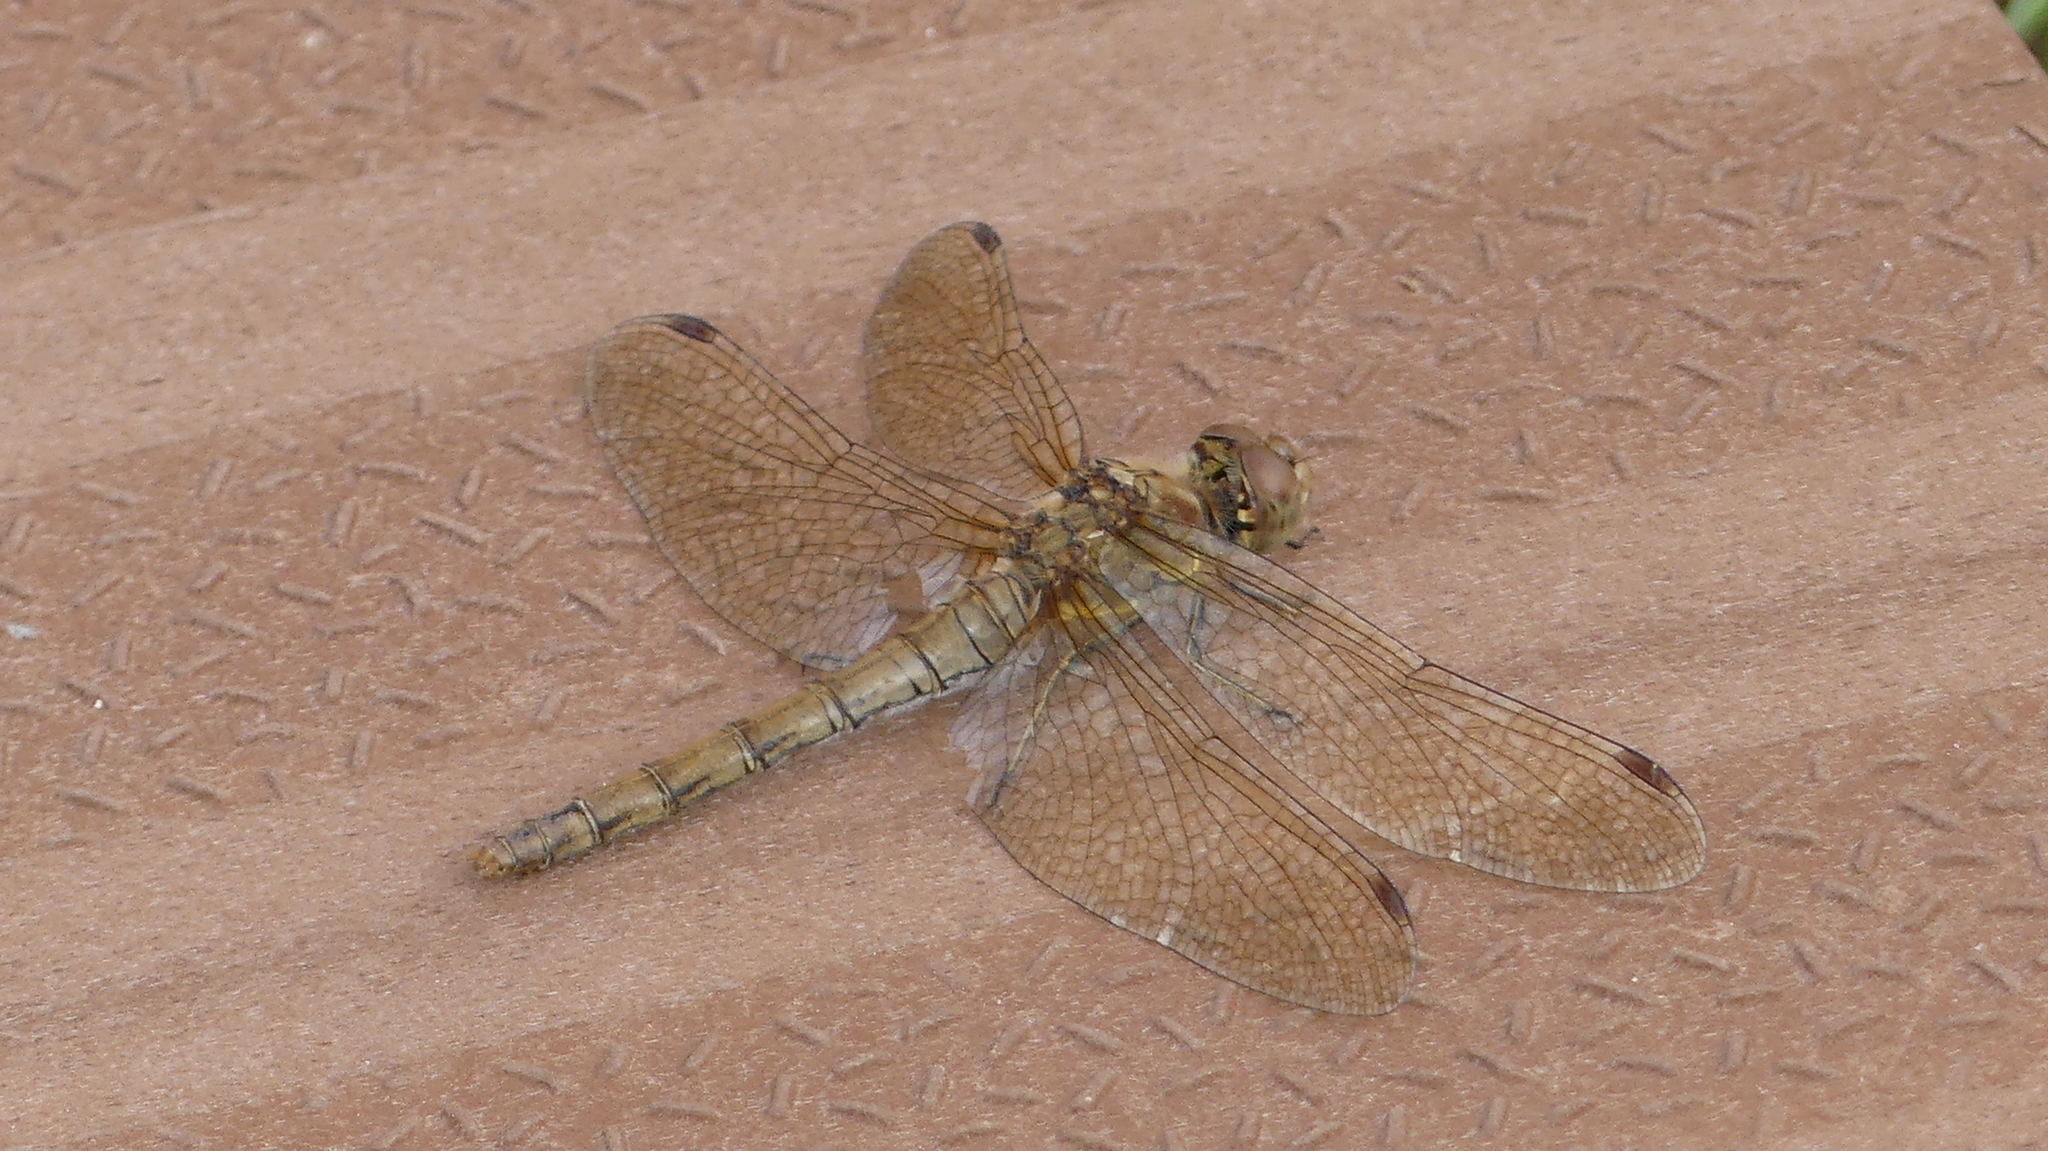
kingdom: Animalia
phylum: Arthropoda
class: Insecta
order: Odonata
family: Libellulidae
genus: Sympetrum
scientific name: Sympetrum striolatum
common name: Common darter
